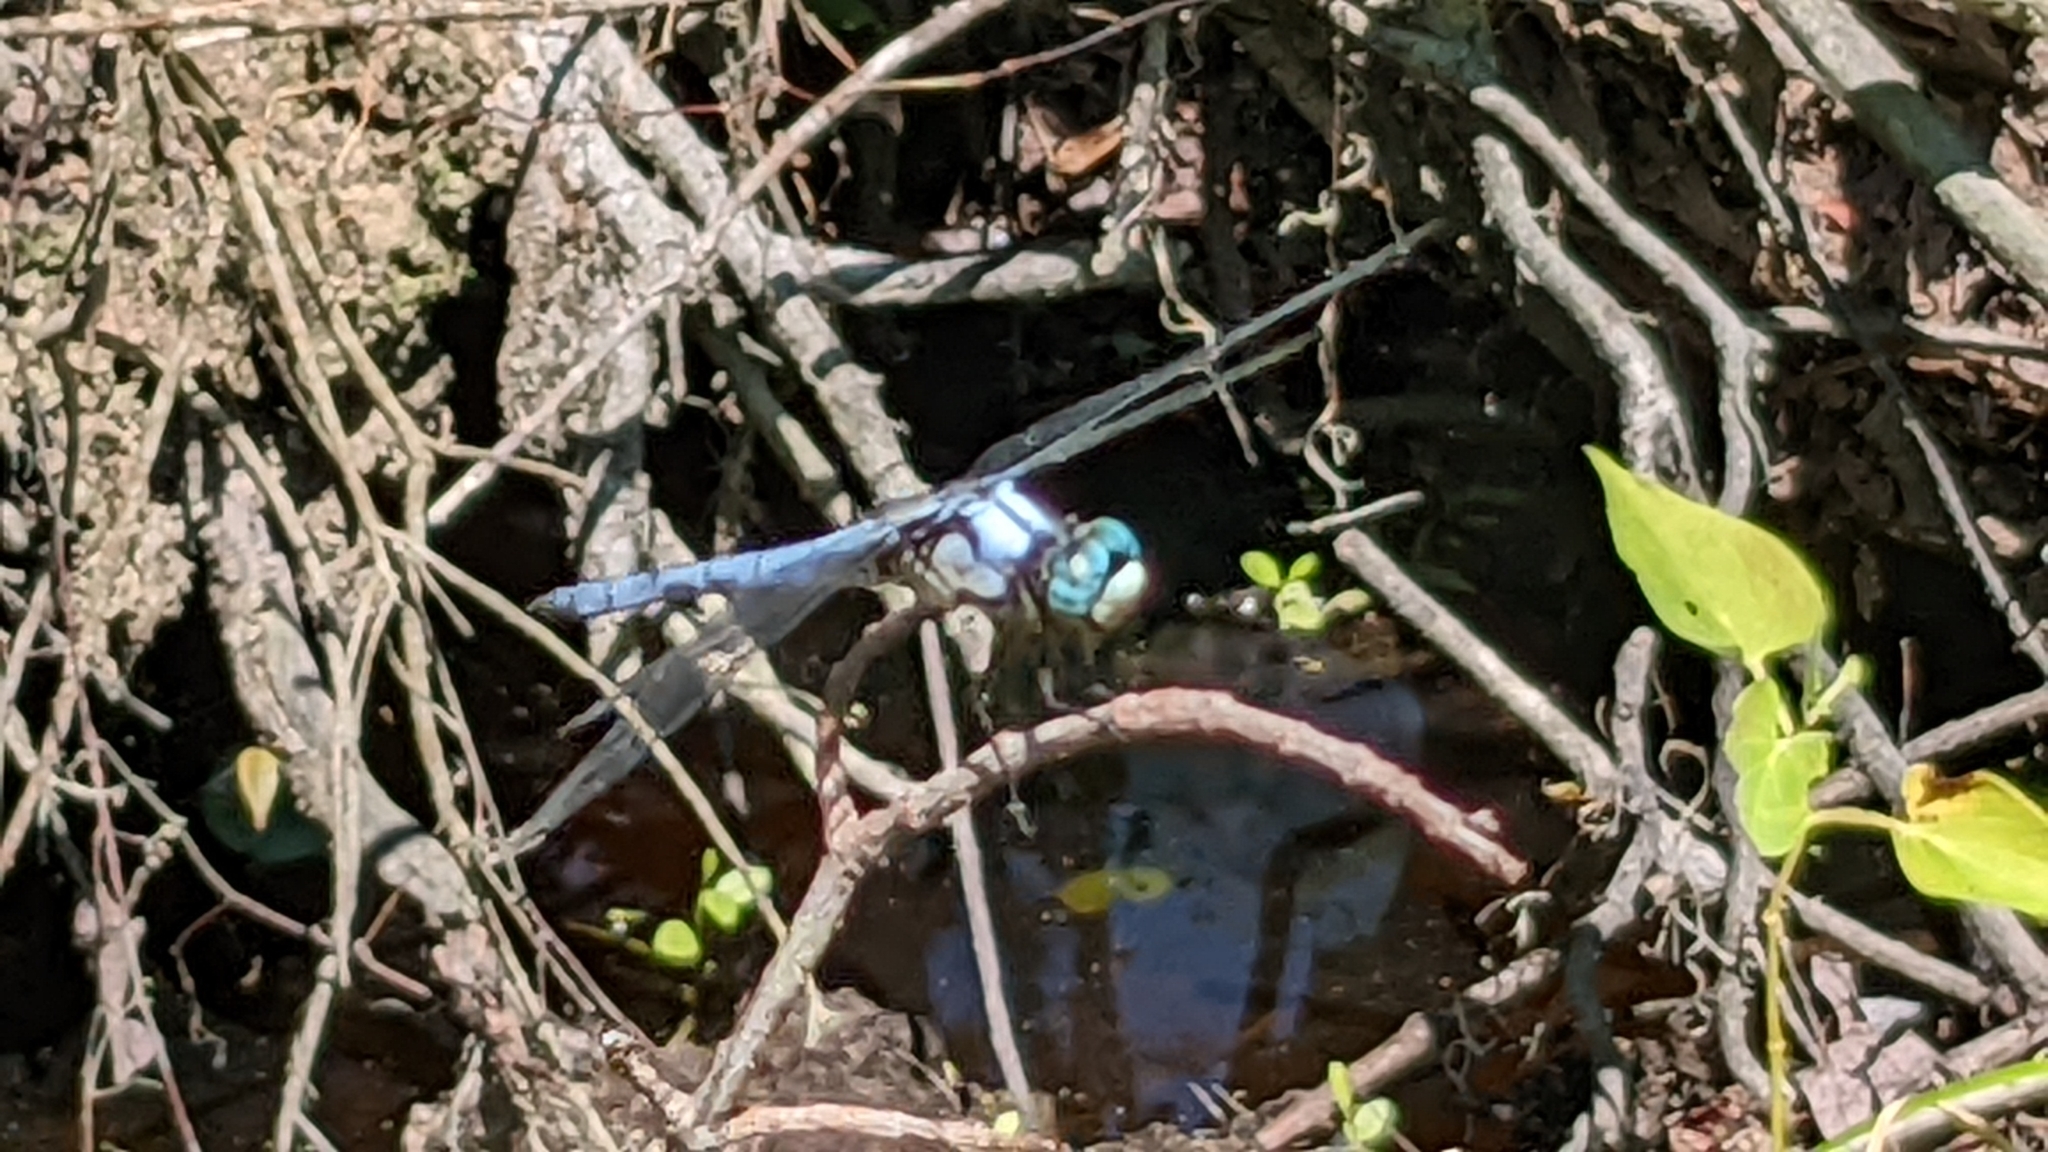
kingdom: Animalia
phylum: Arthropoda
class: Insecta
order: Odonata
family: Libellulidae
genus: Libellula
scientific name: Libellula vibrans
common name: Great blue skimmer
